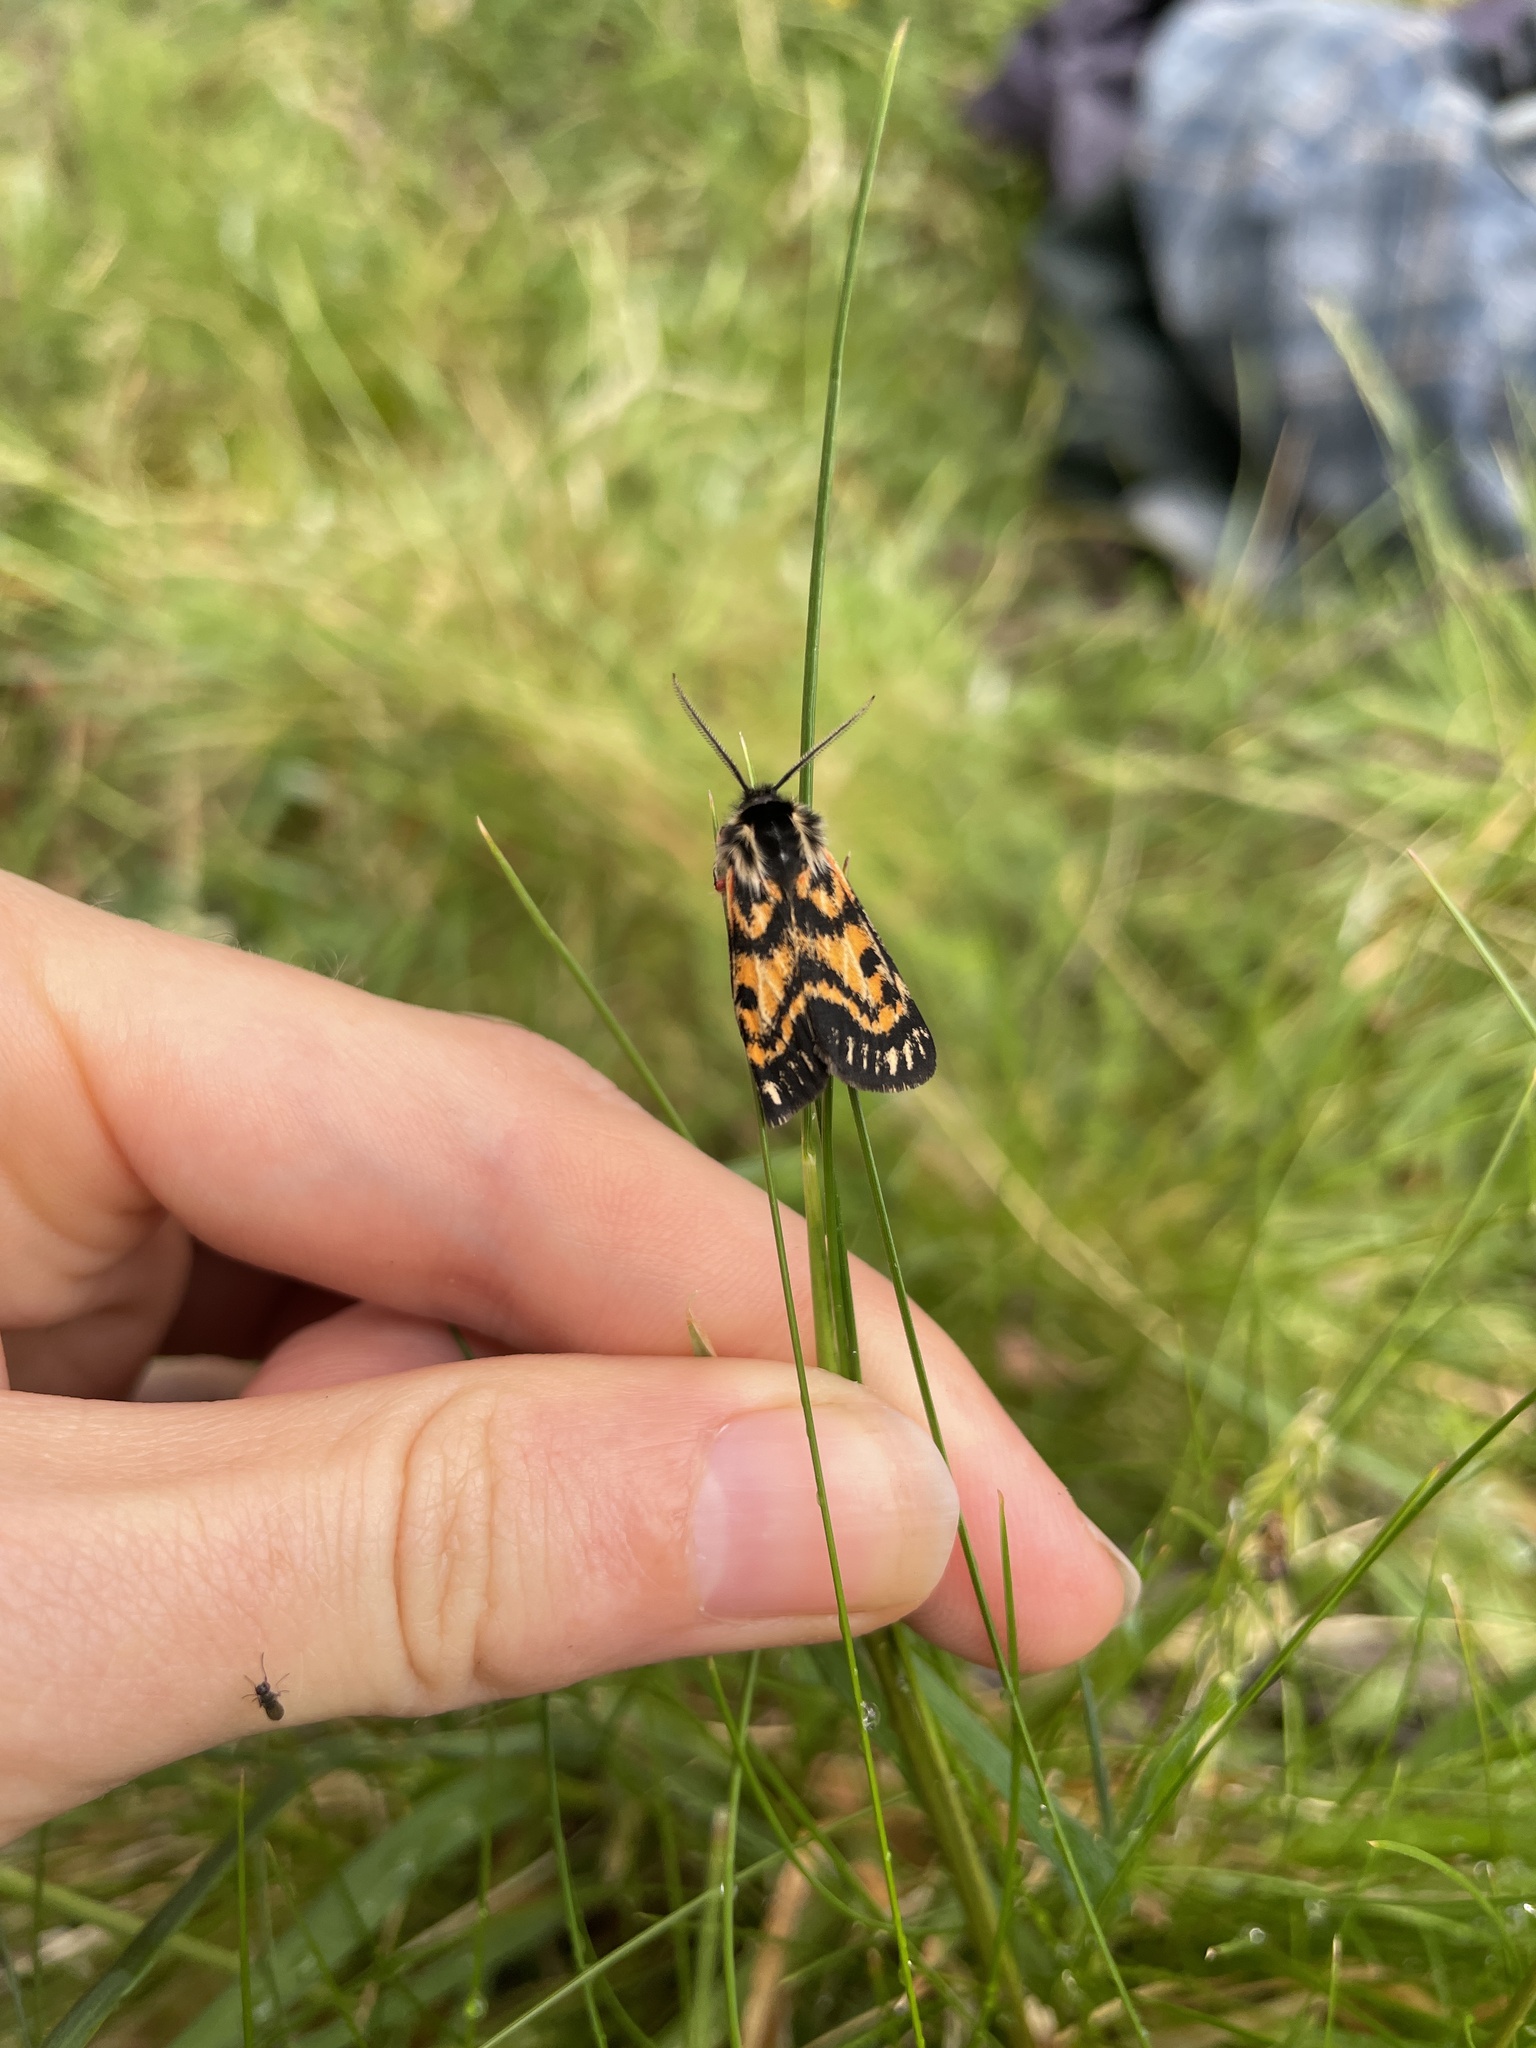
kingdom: Animalia
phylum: Arthropoda
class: Insecta
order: Lepidoptera
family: Erebidae
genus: Phaos
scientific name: Phaos aglaophara
